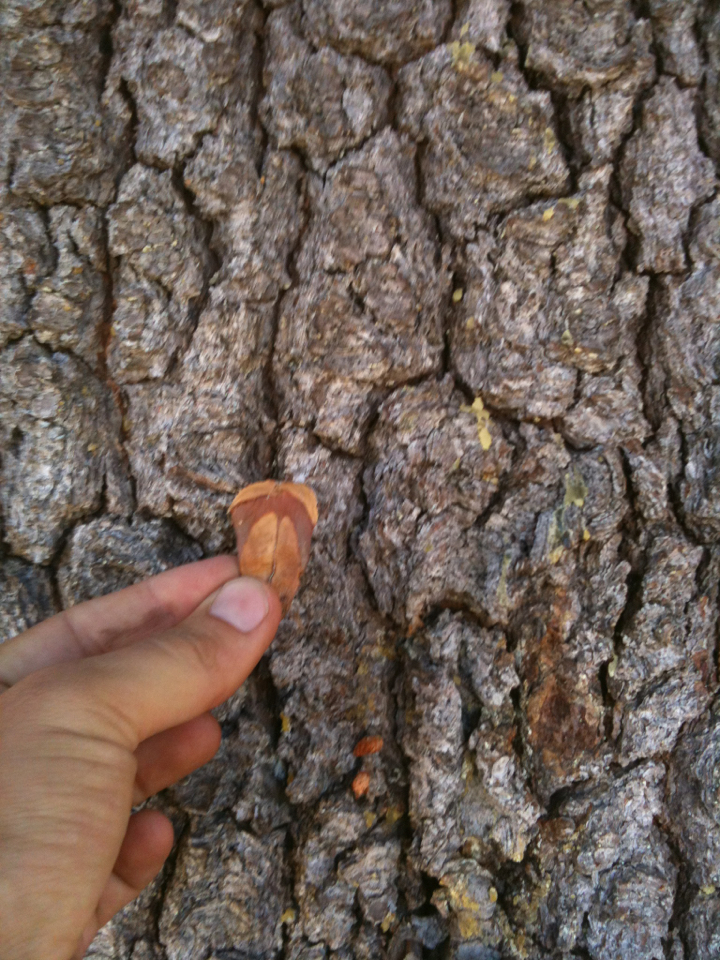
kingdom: Plantae
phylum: Tracheophyta
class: Pinopsida
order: Pinales
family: Pinaceae
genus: Pinus
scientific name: Pinus monticola
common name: Western white pine
